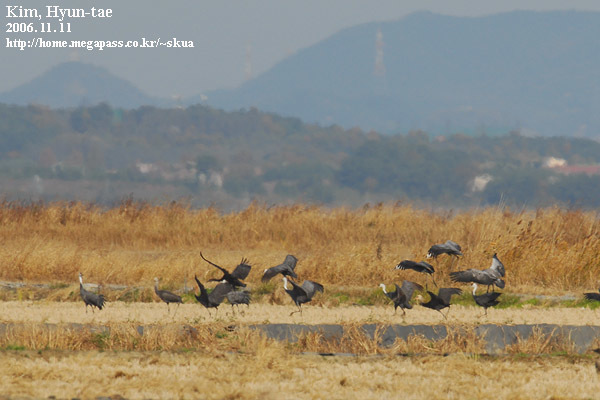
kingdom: Animalia
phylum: Chordata
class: Aves
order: Gruiformes
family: Gruidae
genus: Grus
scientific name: Grus monacha
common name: Hooded crane
